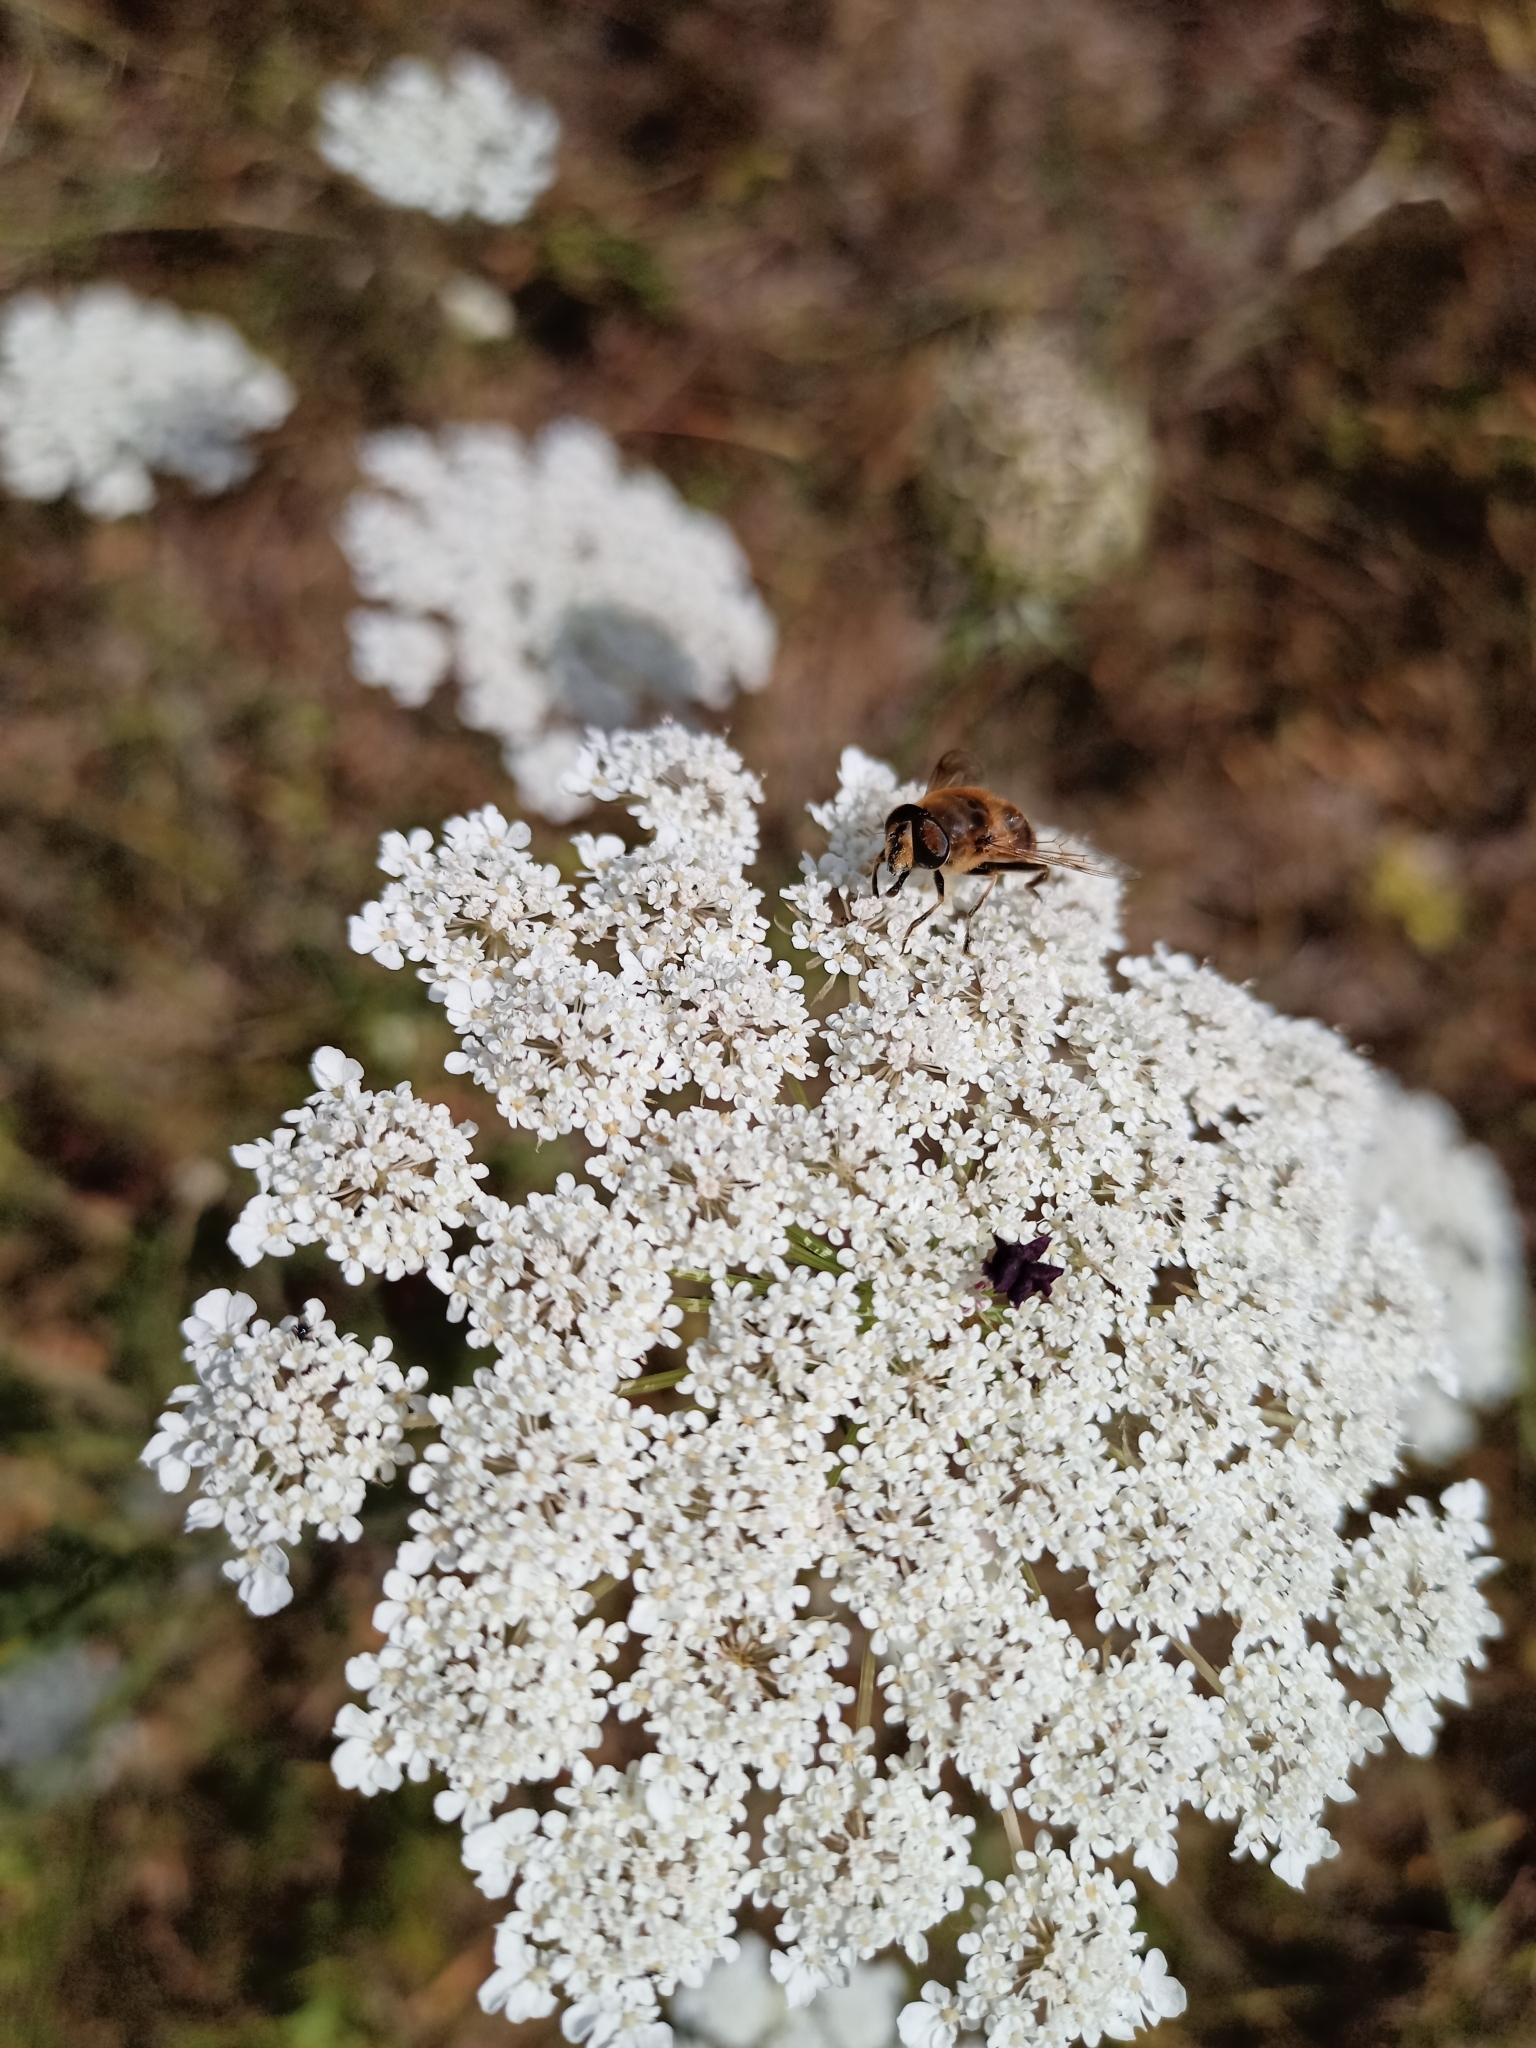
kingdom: Animalia
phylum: Arthropoda
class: Insecta
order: Diptera
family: Syrphidae
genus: Eristalis
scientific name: Eristalis tenax
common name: Drone fly
